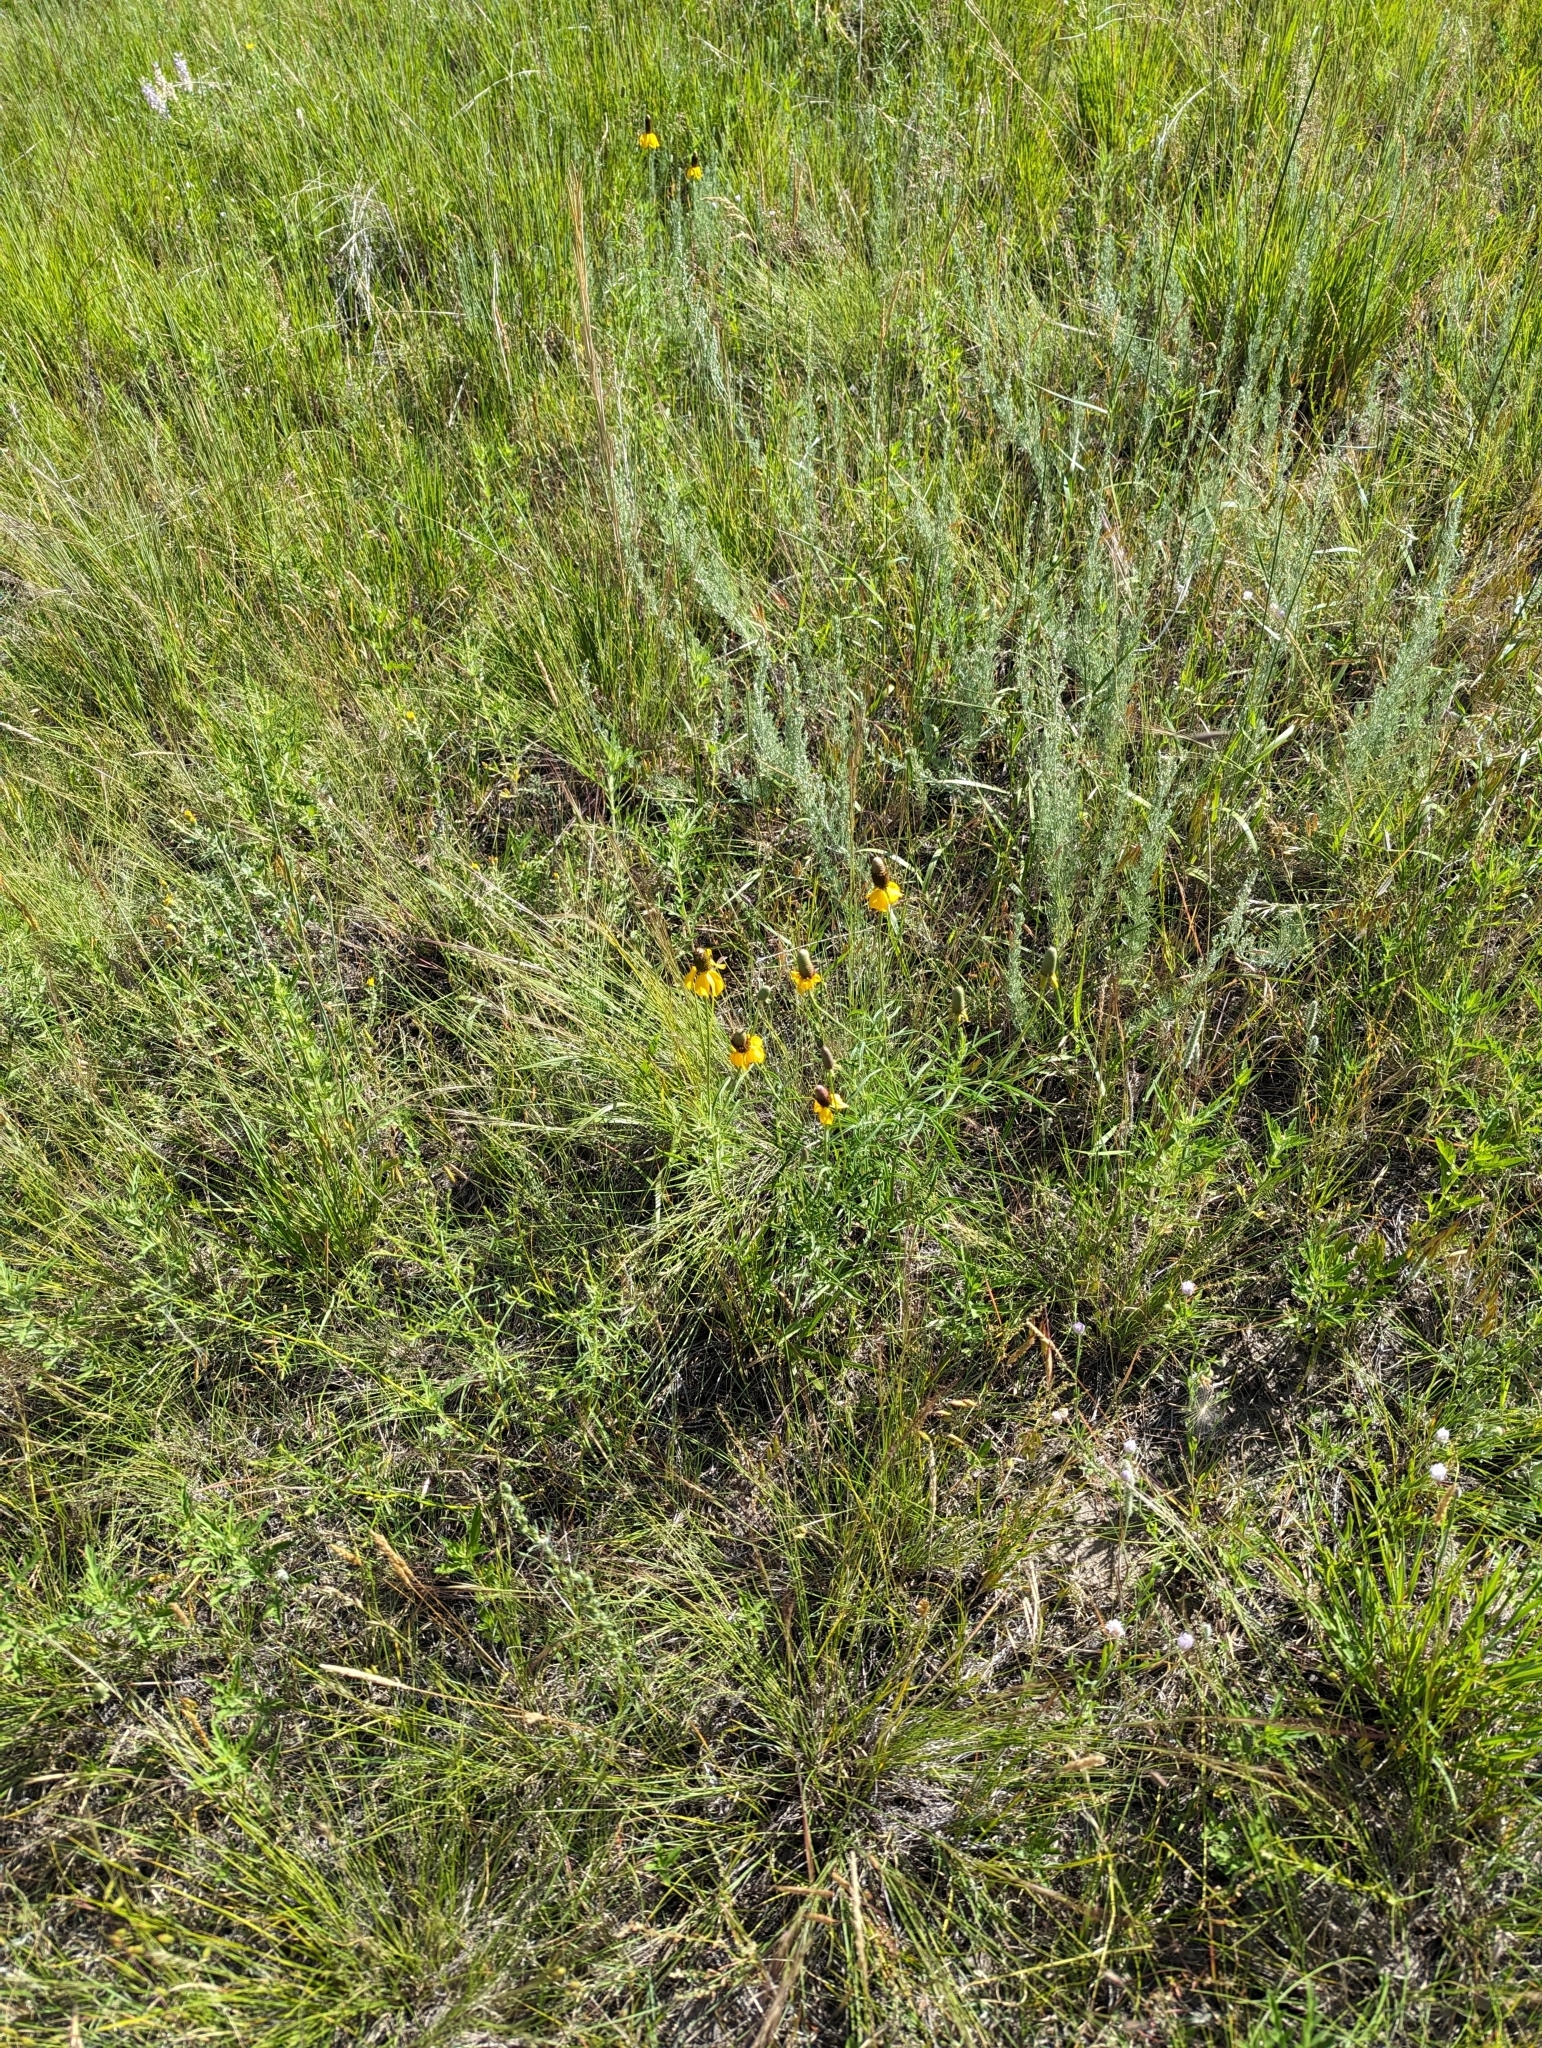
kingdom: Plantae
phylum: Tracheophyta
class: Magnoliopsida
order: Asterales
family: Asteraceae
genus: Ratibida
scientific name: Ratibida columnifera
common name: Prairie coneflower
